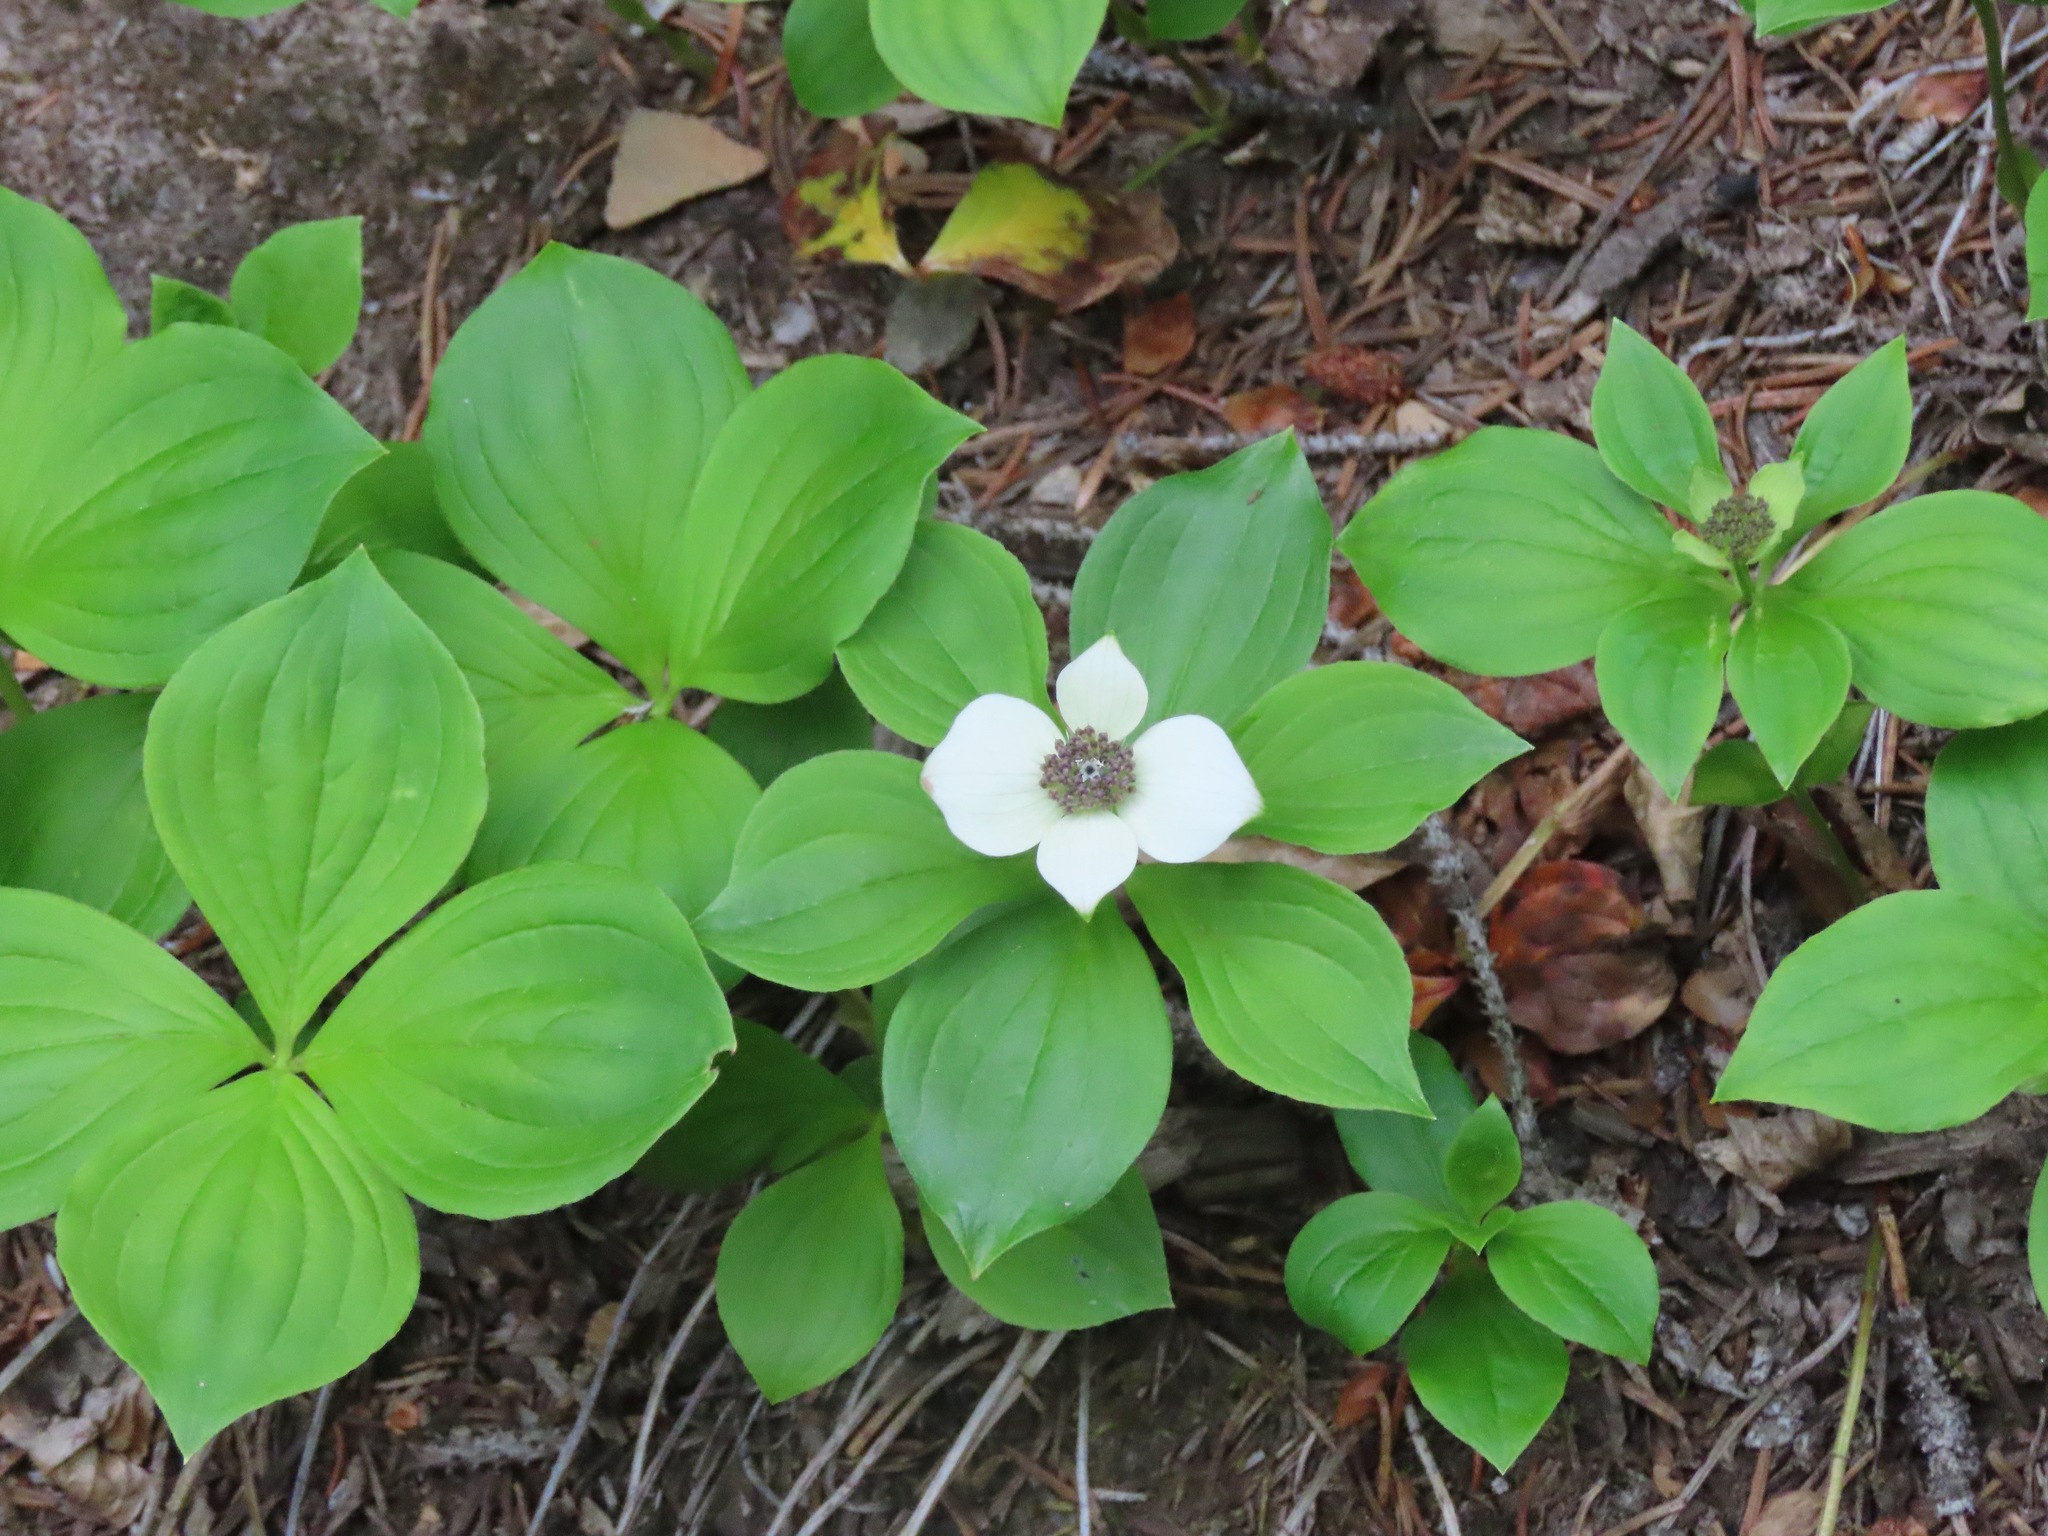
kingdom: Plantae
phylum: Tracheophyta
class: Magnoliopsida
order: Cornales
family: Cornaceae
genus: Cornus
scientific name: Cornus canadensis
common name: Creeping dogwood
